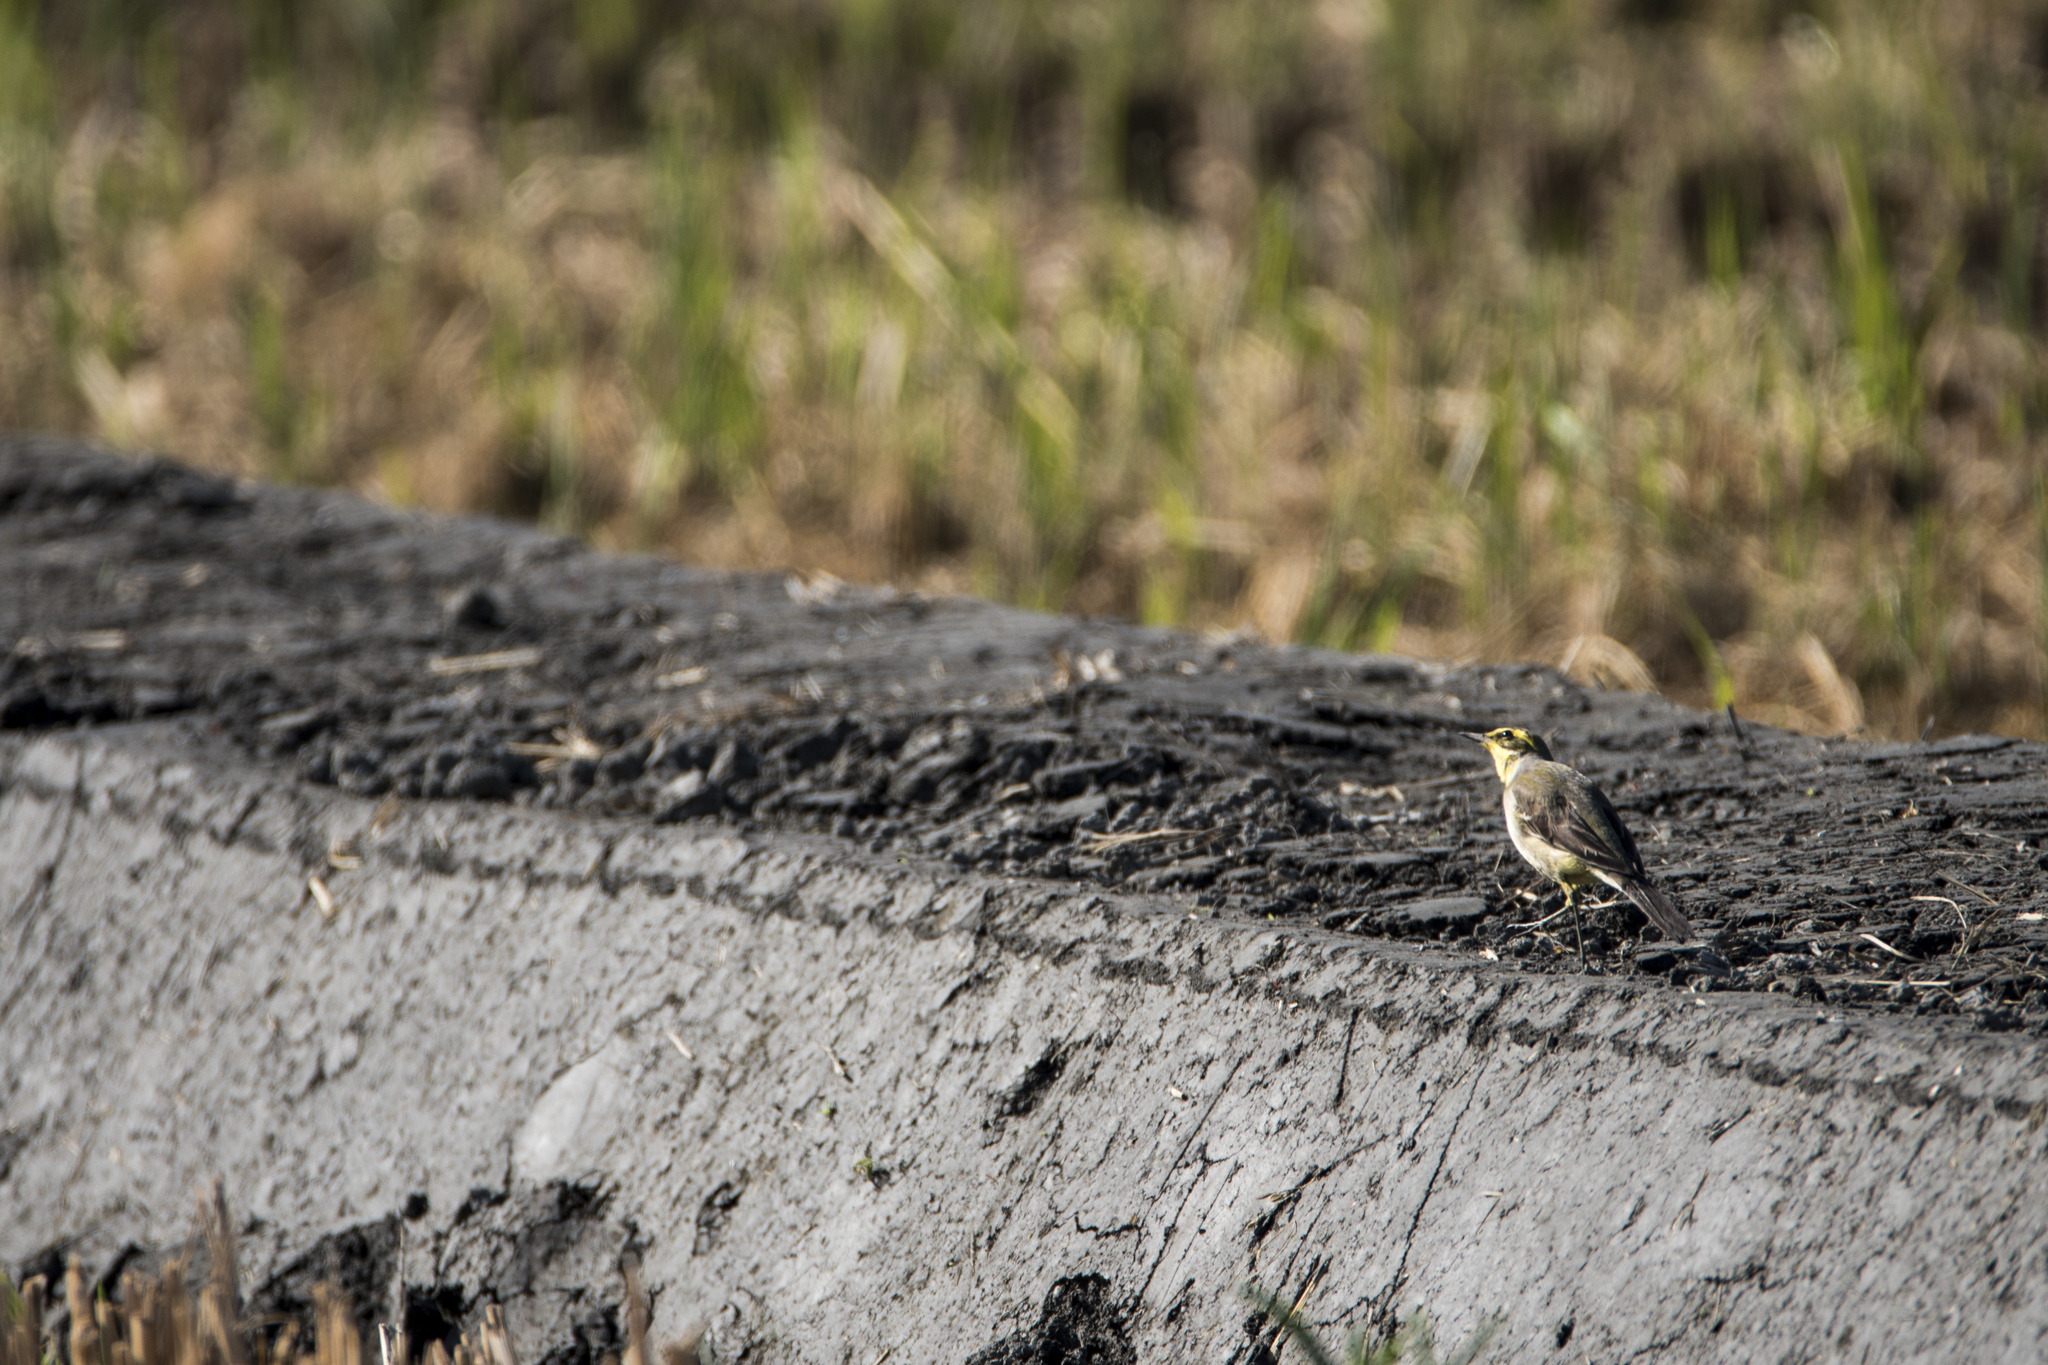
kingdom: Animalia
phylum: Chordata
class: Aves
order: Passeriformes
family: Motacillidae
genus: Motacilla
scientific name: Motacilla tschutschensis
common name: Eastern yellow wagtail
